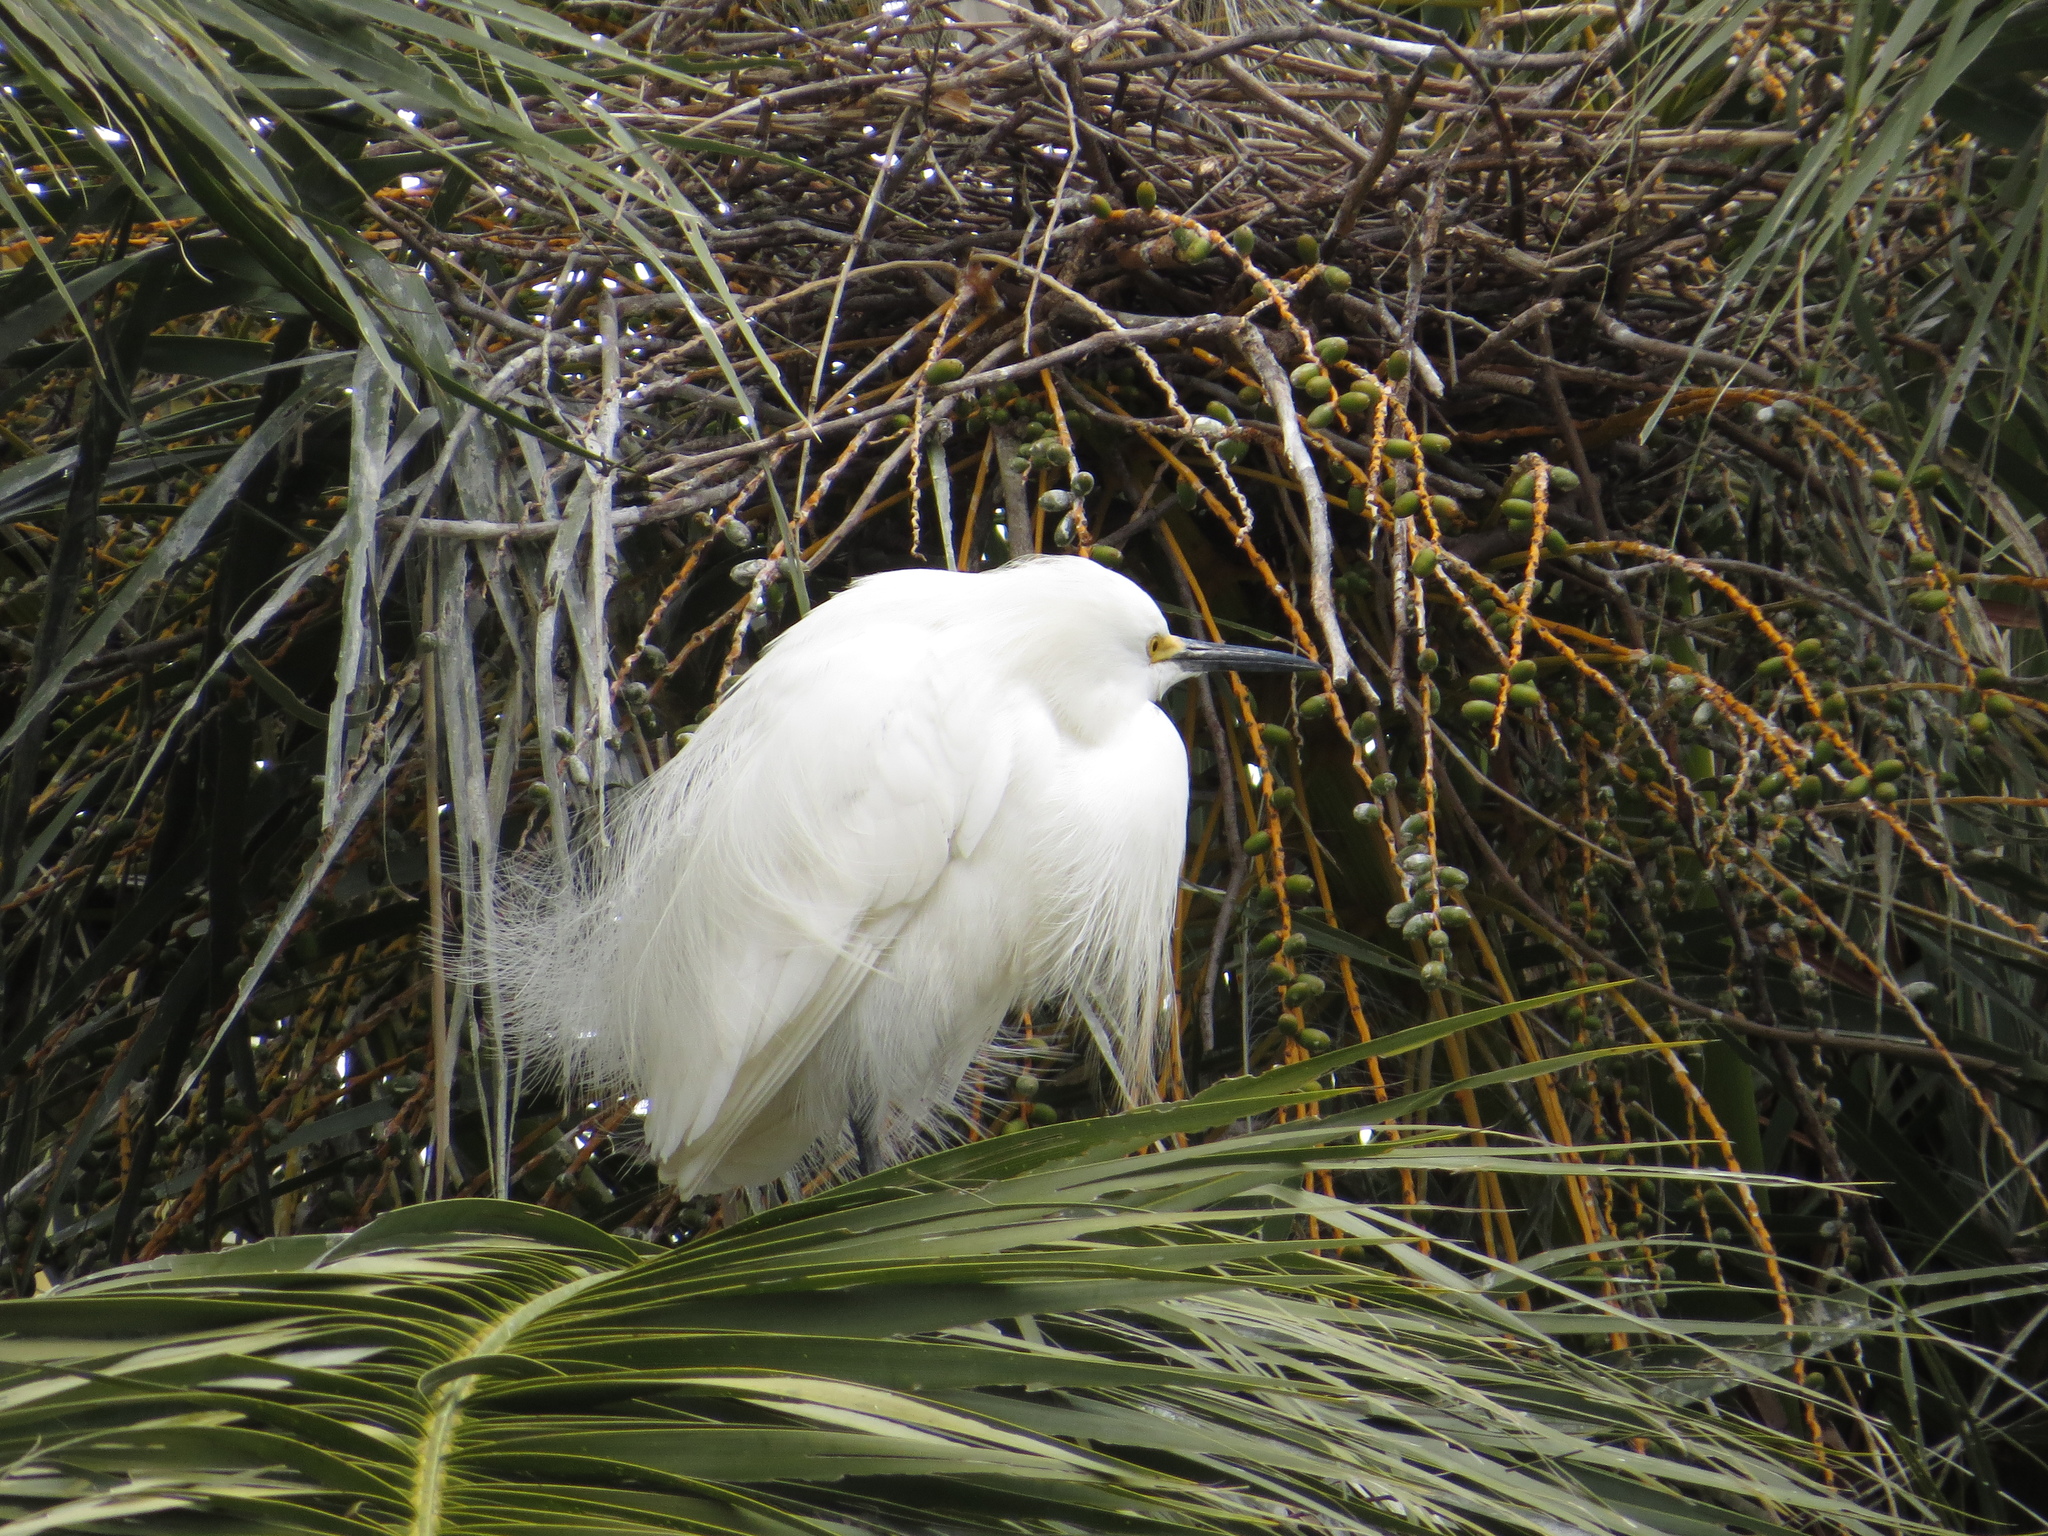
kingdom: Animalia
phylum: Chordata
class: Aves
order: Pelecaniformes
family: Ardeidae
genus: Egretta
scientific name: Egretta thula
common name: Snowy egret
